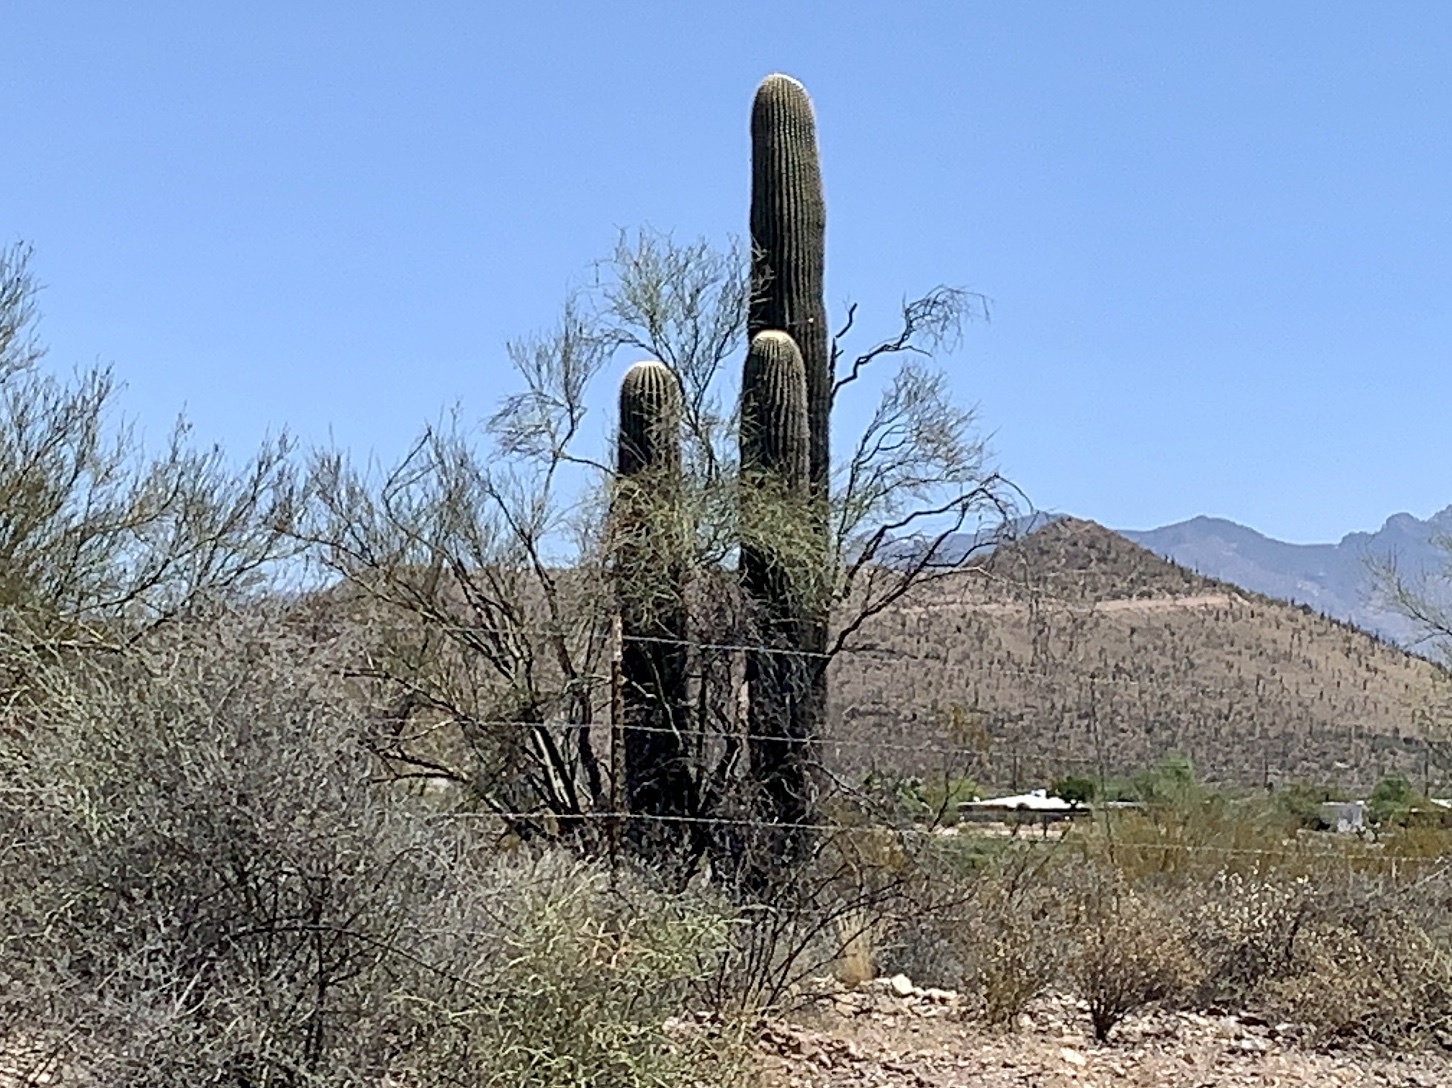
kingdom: Plantae
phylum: Tracheophyta
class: Magnoliopsida
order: Caryophyllales
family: Cactaceae
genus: Carnegiea
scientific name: Carnegiea gigantea
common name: Saguaro
